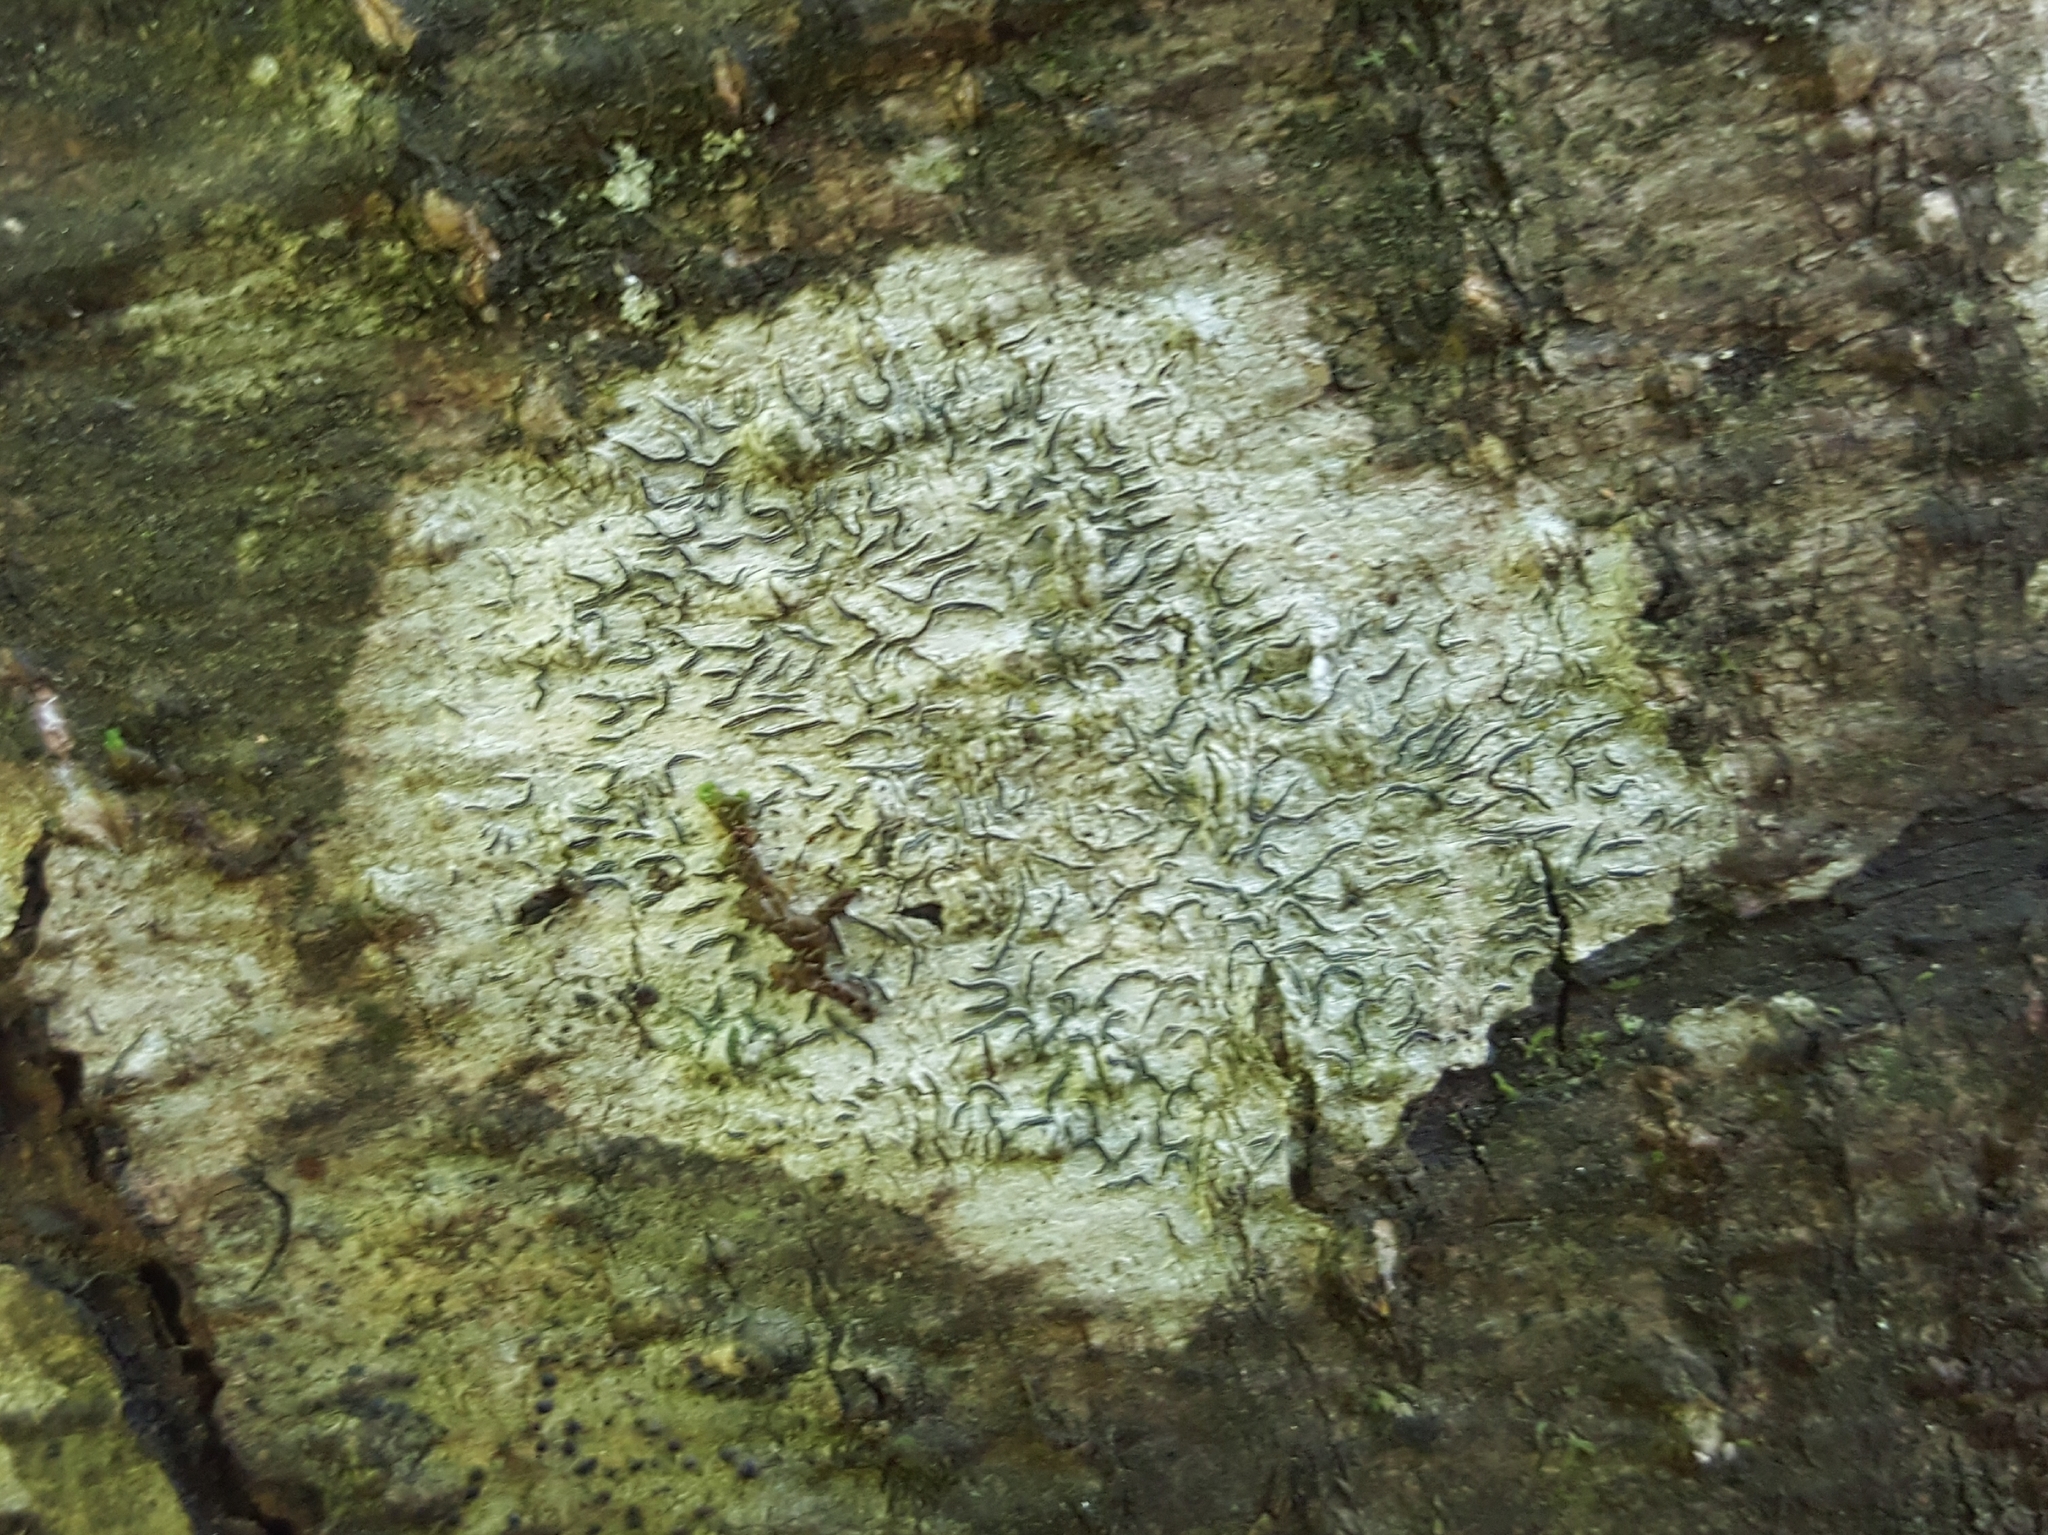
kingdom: Fungi
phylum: Ascomycota
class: Lecanoromycetes
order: Ostropales
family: Graphidaceae
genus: Graphis
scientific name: Graphis scripta
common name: Script lichen
